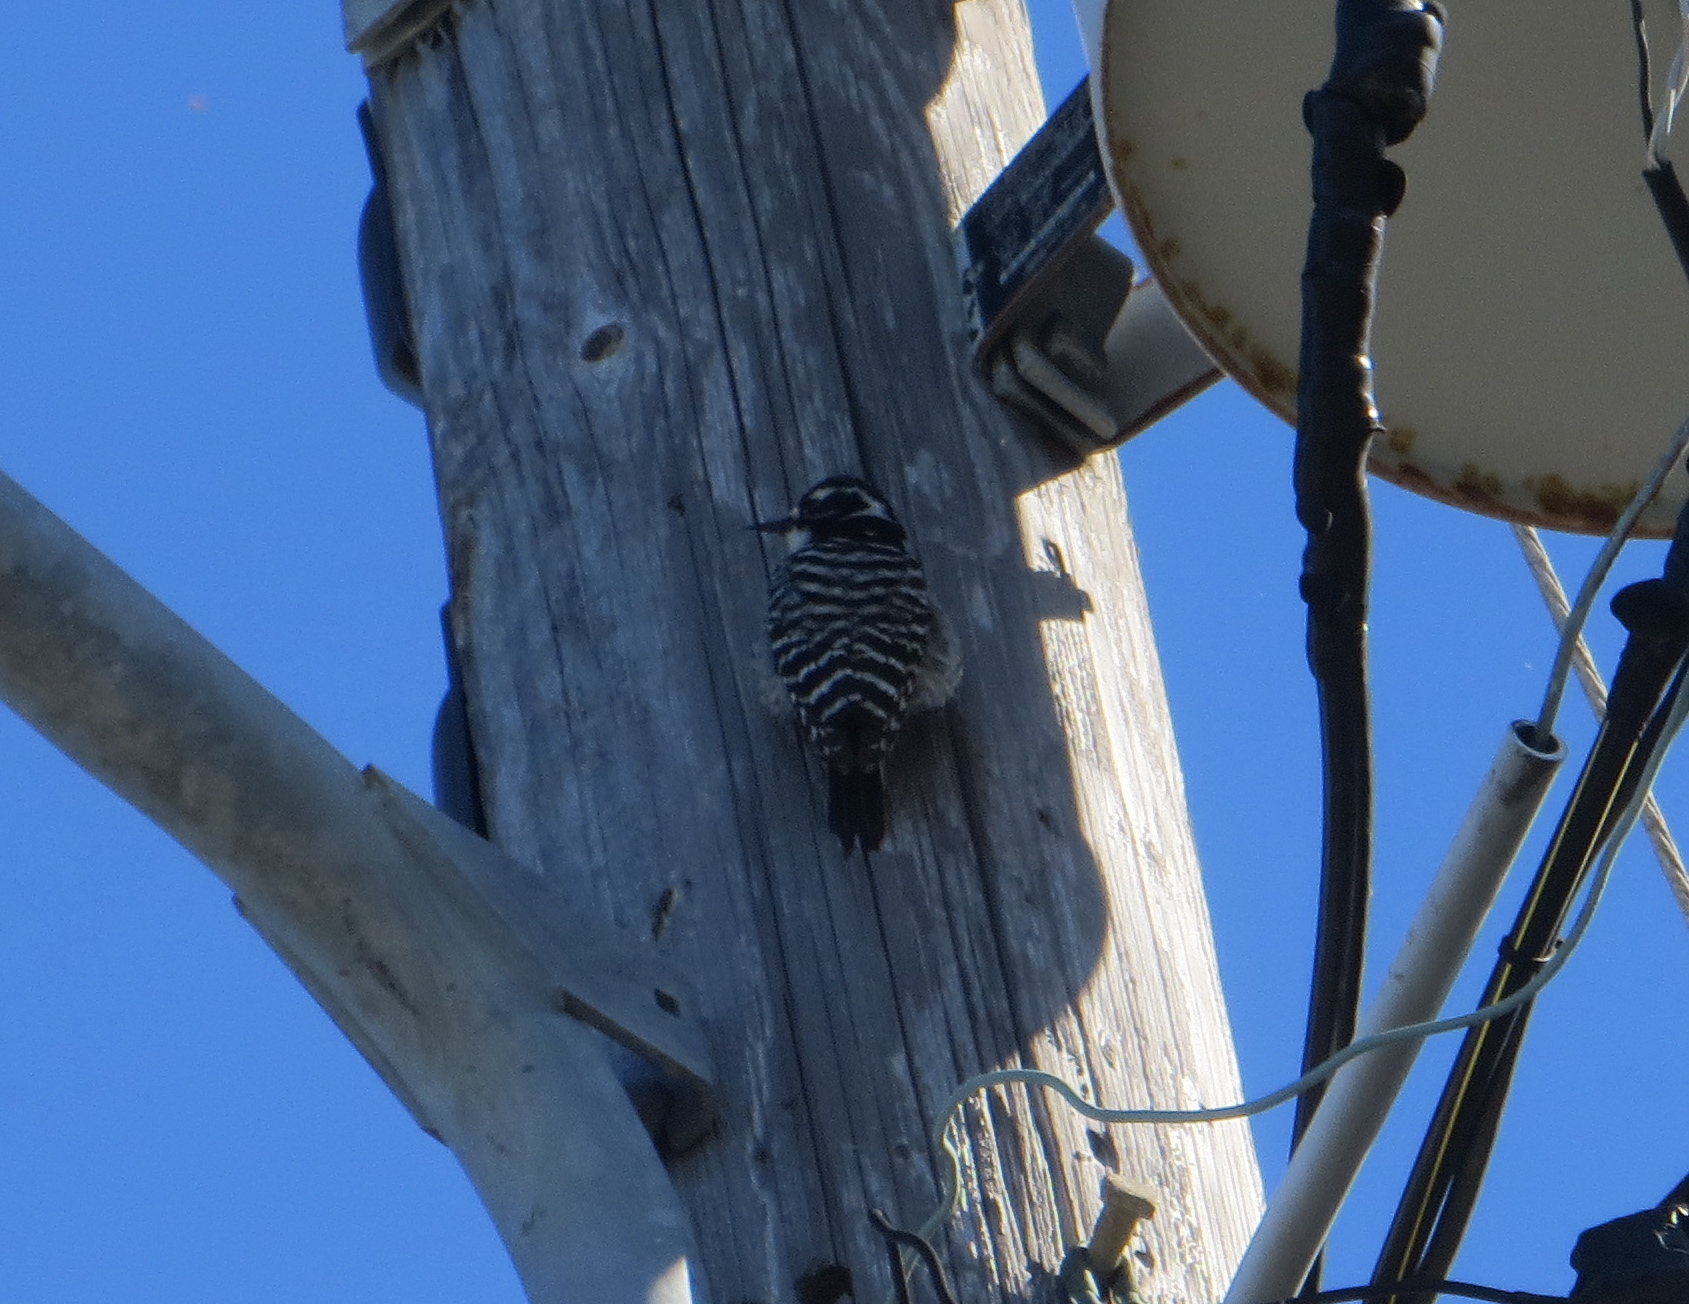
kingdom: Animalia
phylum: Chordata
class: Aves
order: Piciformes
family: Picidae
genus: Dryobates
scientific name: Dryobates nuttallii
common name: Nuttall's woodpecker
